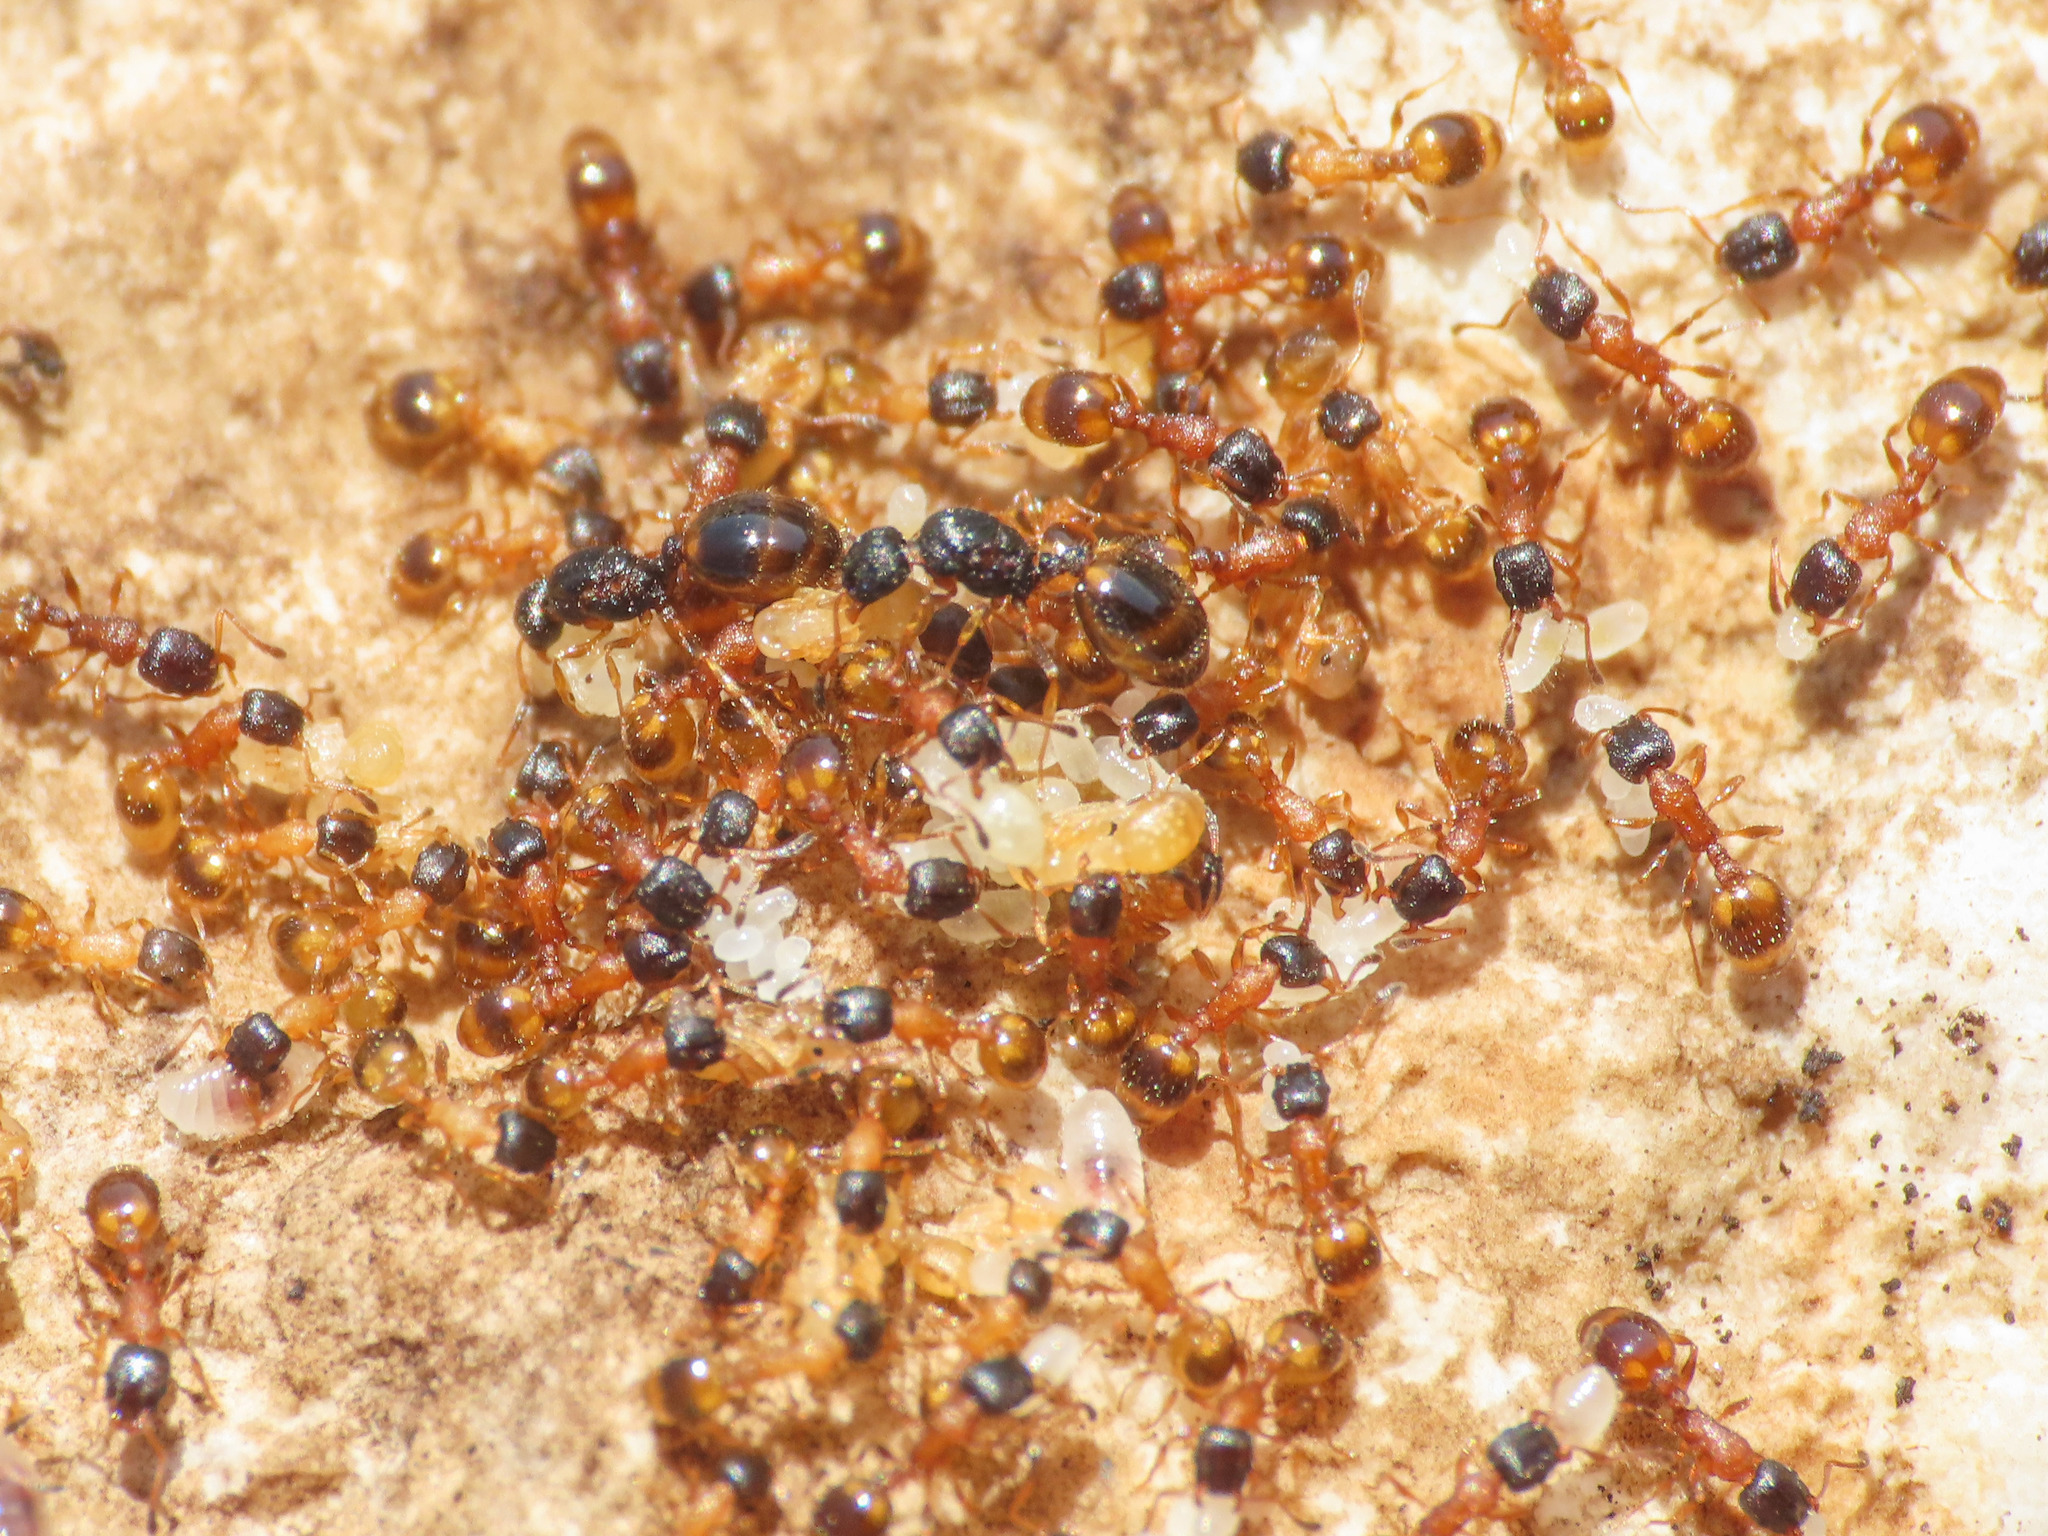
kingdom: Animalia
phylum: Arthropoda
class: Insecta
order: Hymenoptera
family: Formicidae
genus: Leptothorax
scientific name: Leptothorax tuberum
